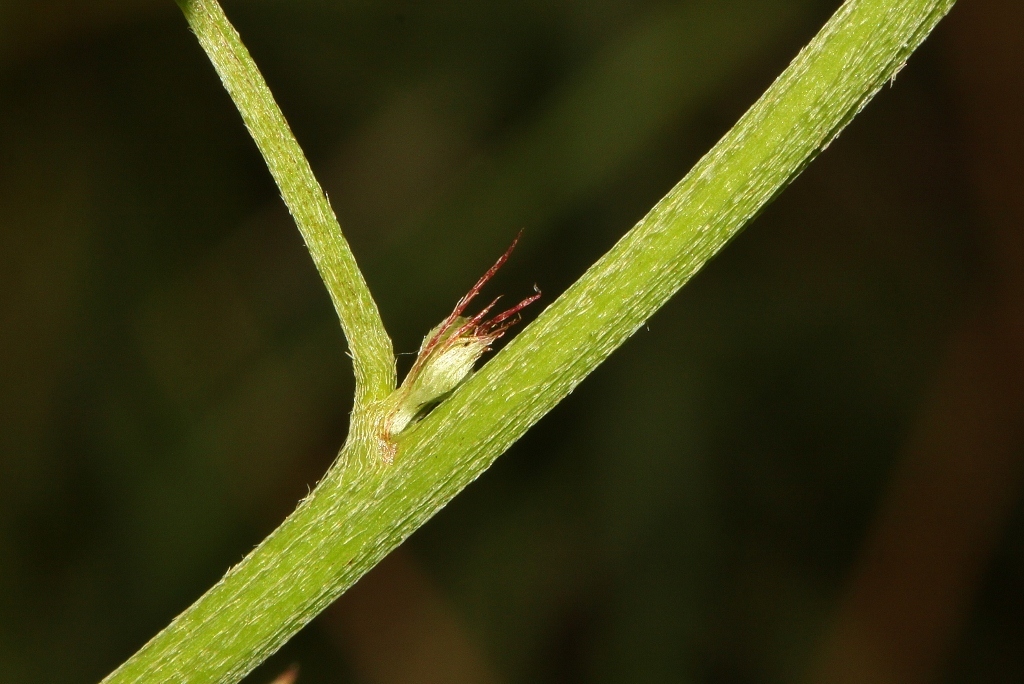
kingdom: Plantae
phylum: Tracheophyta
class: Magnoliopsida
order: Fabales
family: Fabaceae
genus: Indigofera
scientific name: Indigofera subulata
